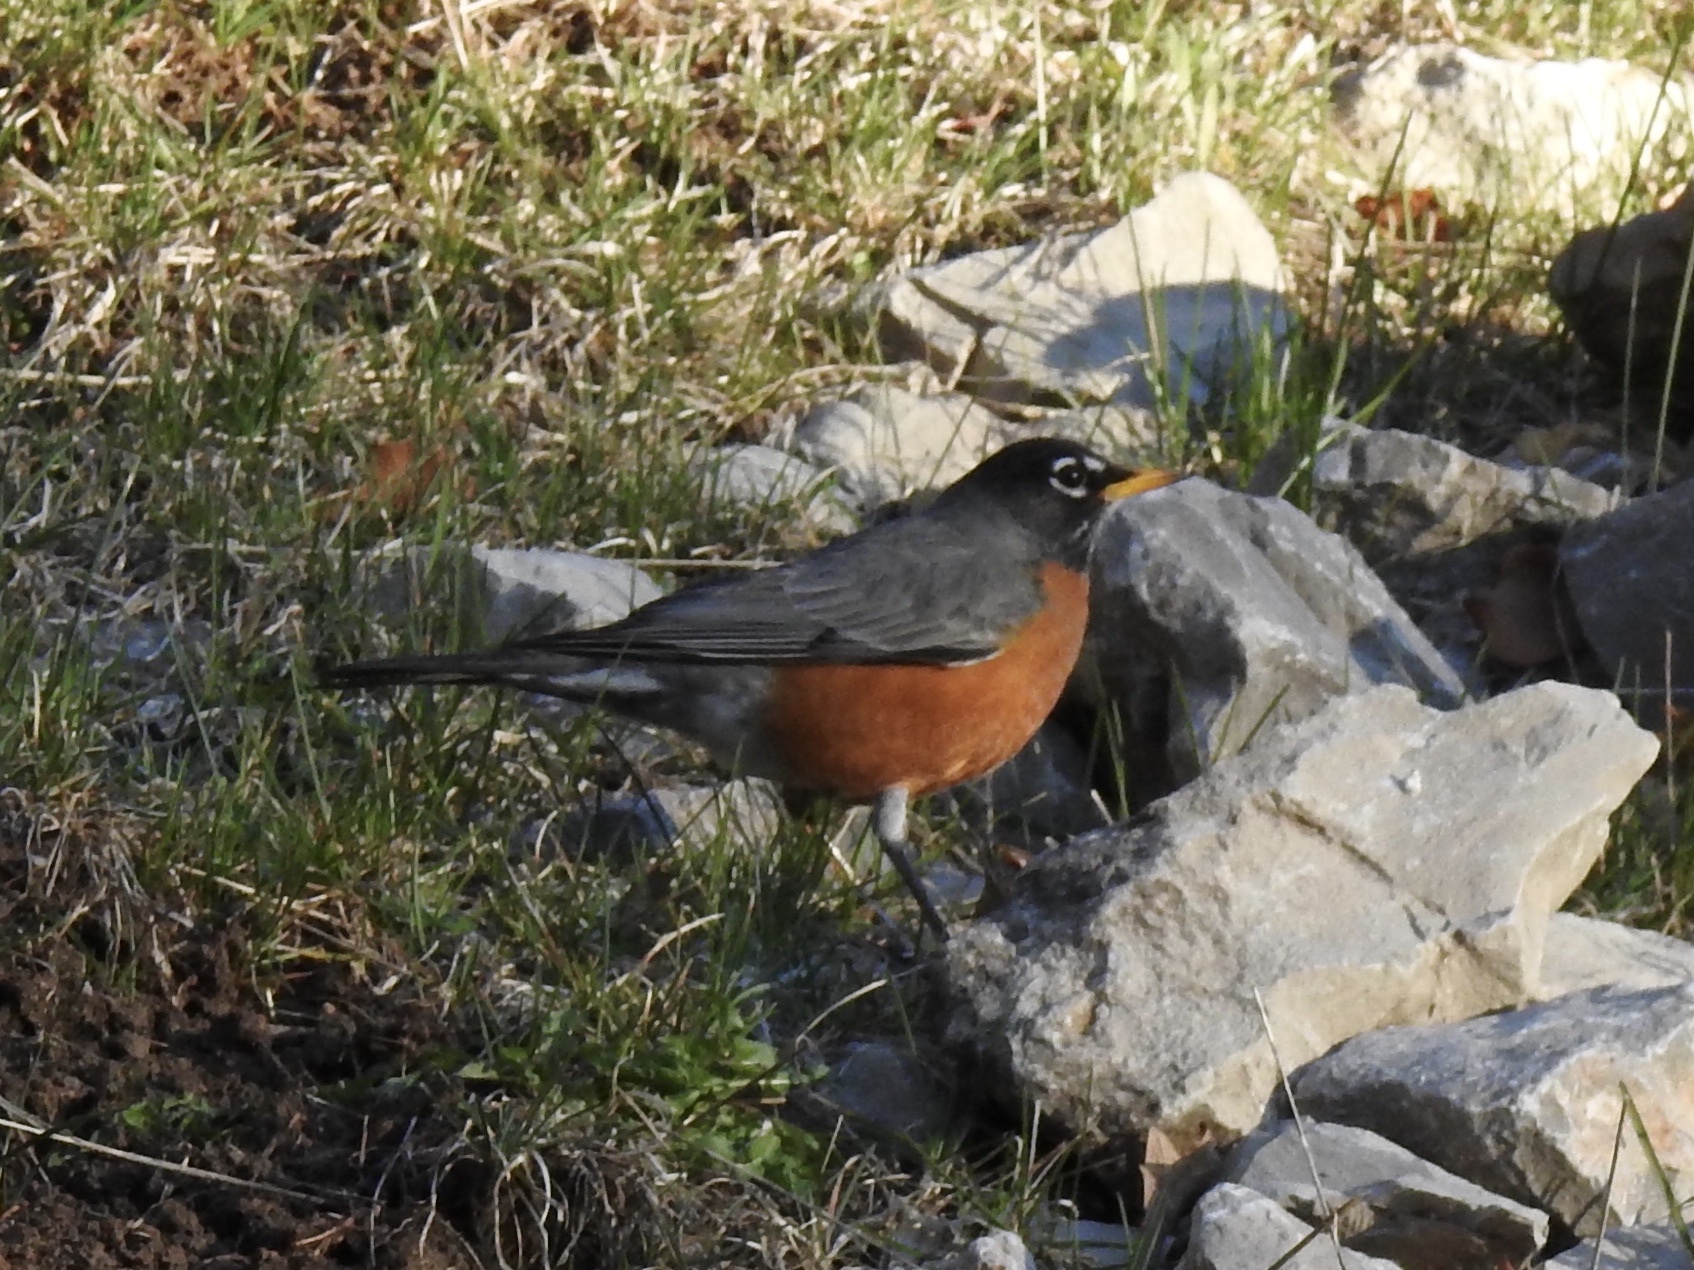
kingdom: Animalia
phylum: Chordata
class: Aves
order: Passeriformes
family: Turdidae
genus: Turdus
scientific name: Turdus migratorius
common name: American robin
